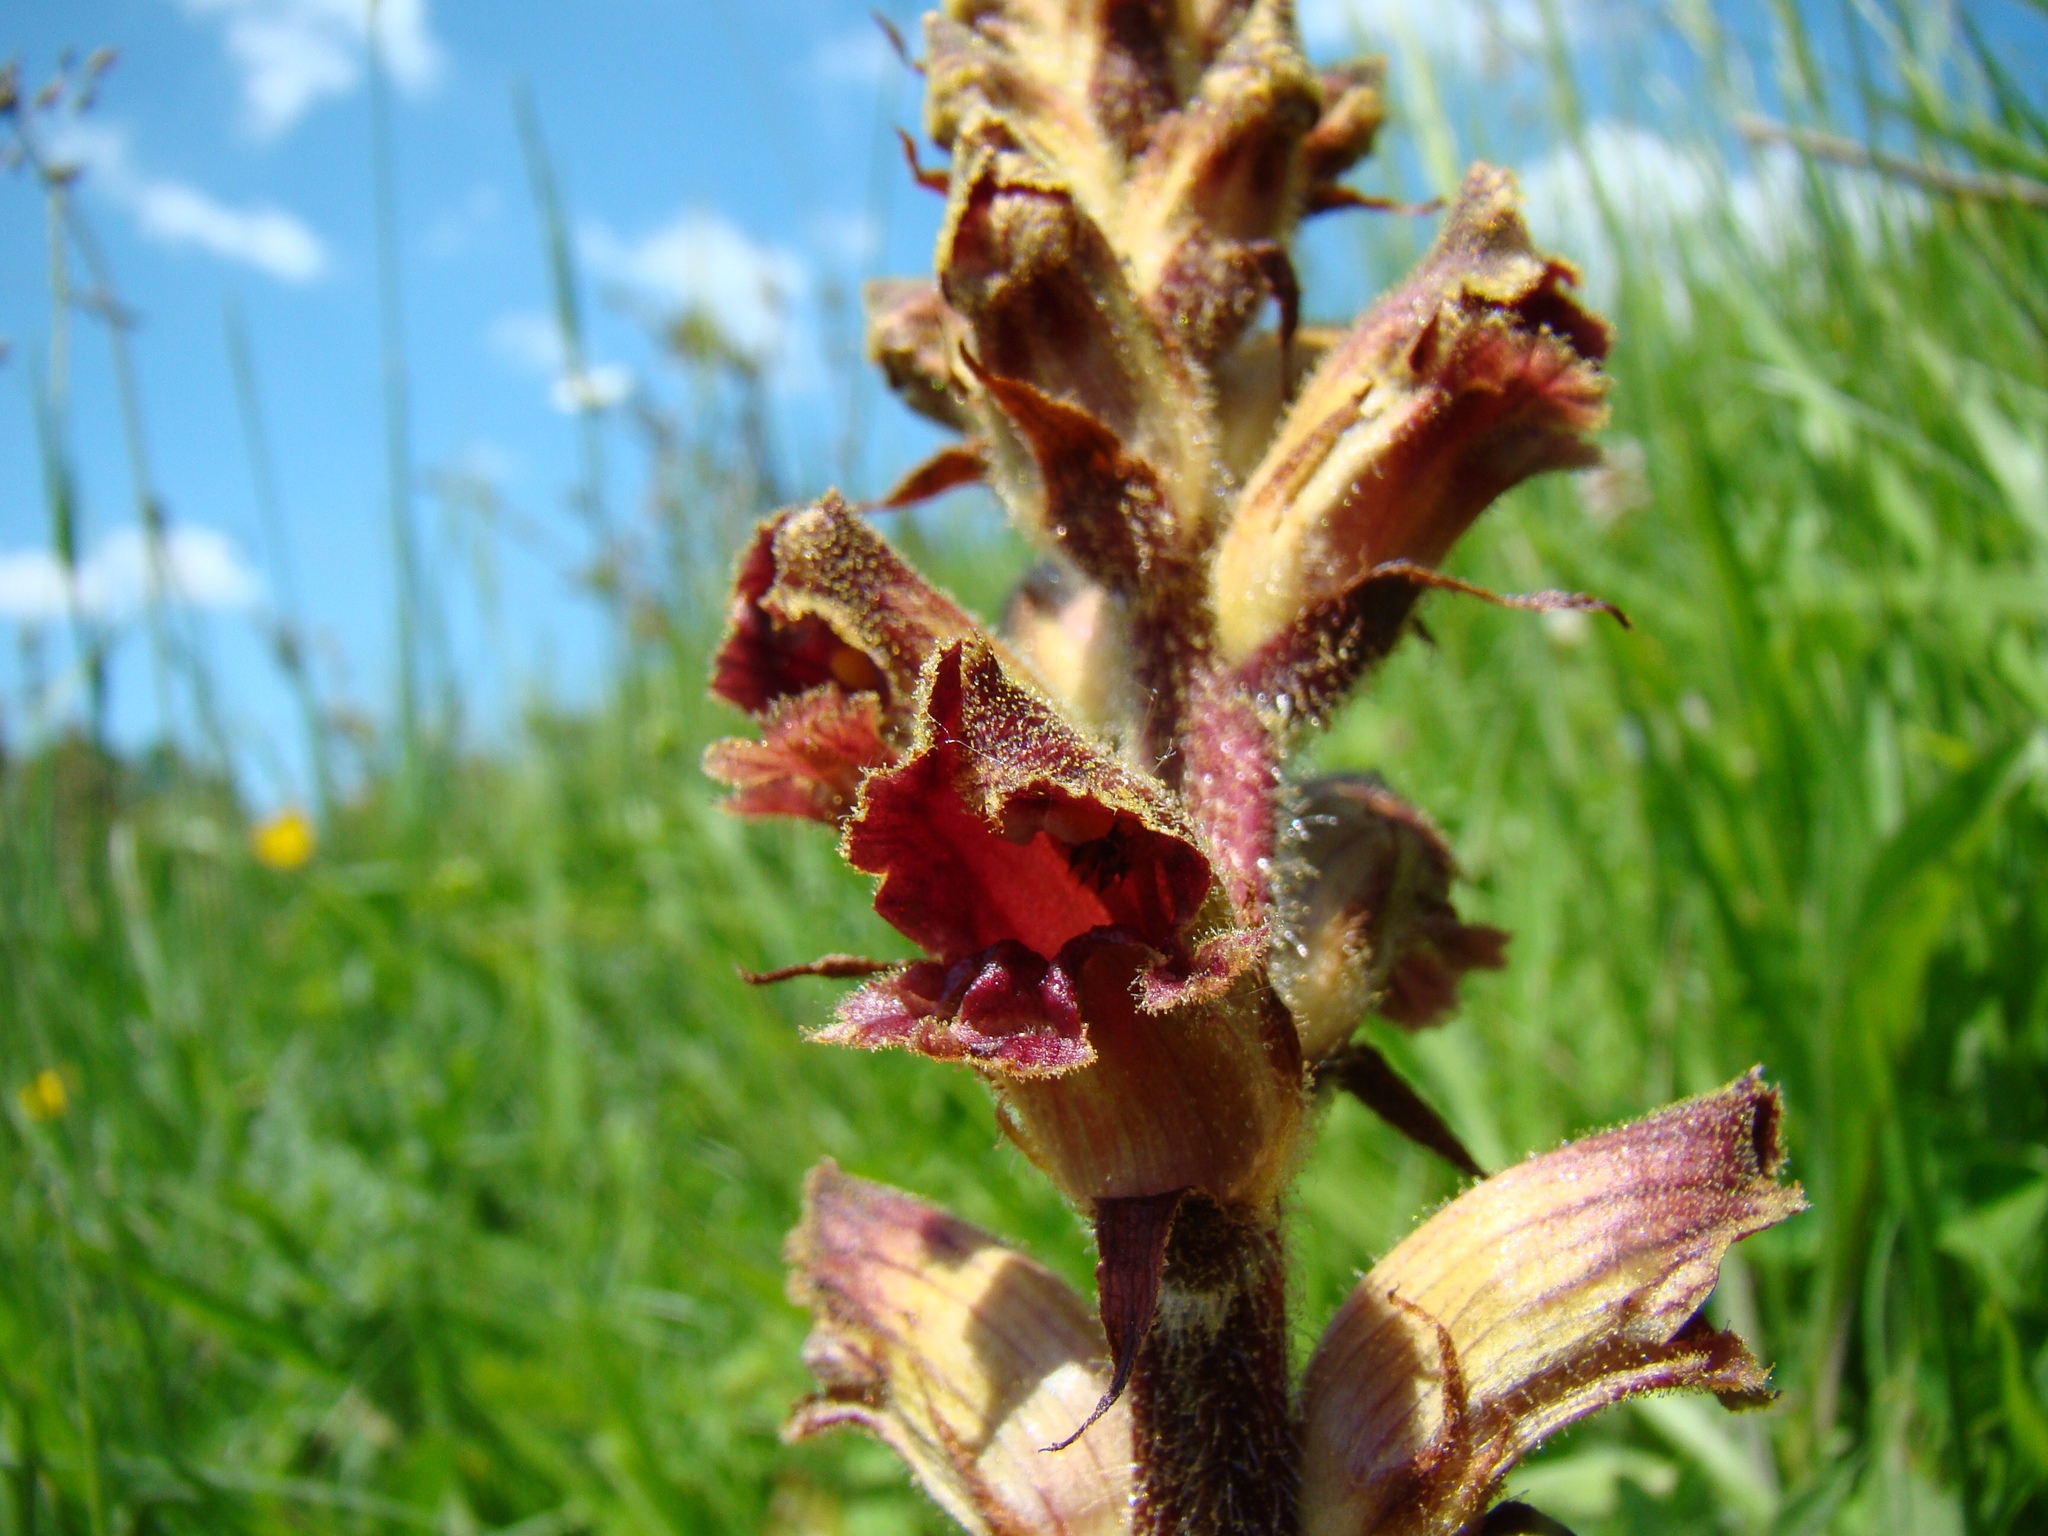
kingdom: Plantae
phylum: Tracheophyta
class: Magnoliopsida
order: Lamiales
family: Orobanchaceae
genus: Orobanche
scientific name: Orobanche gracilis
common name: Slender broomrape
